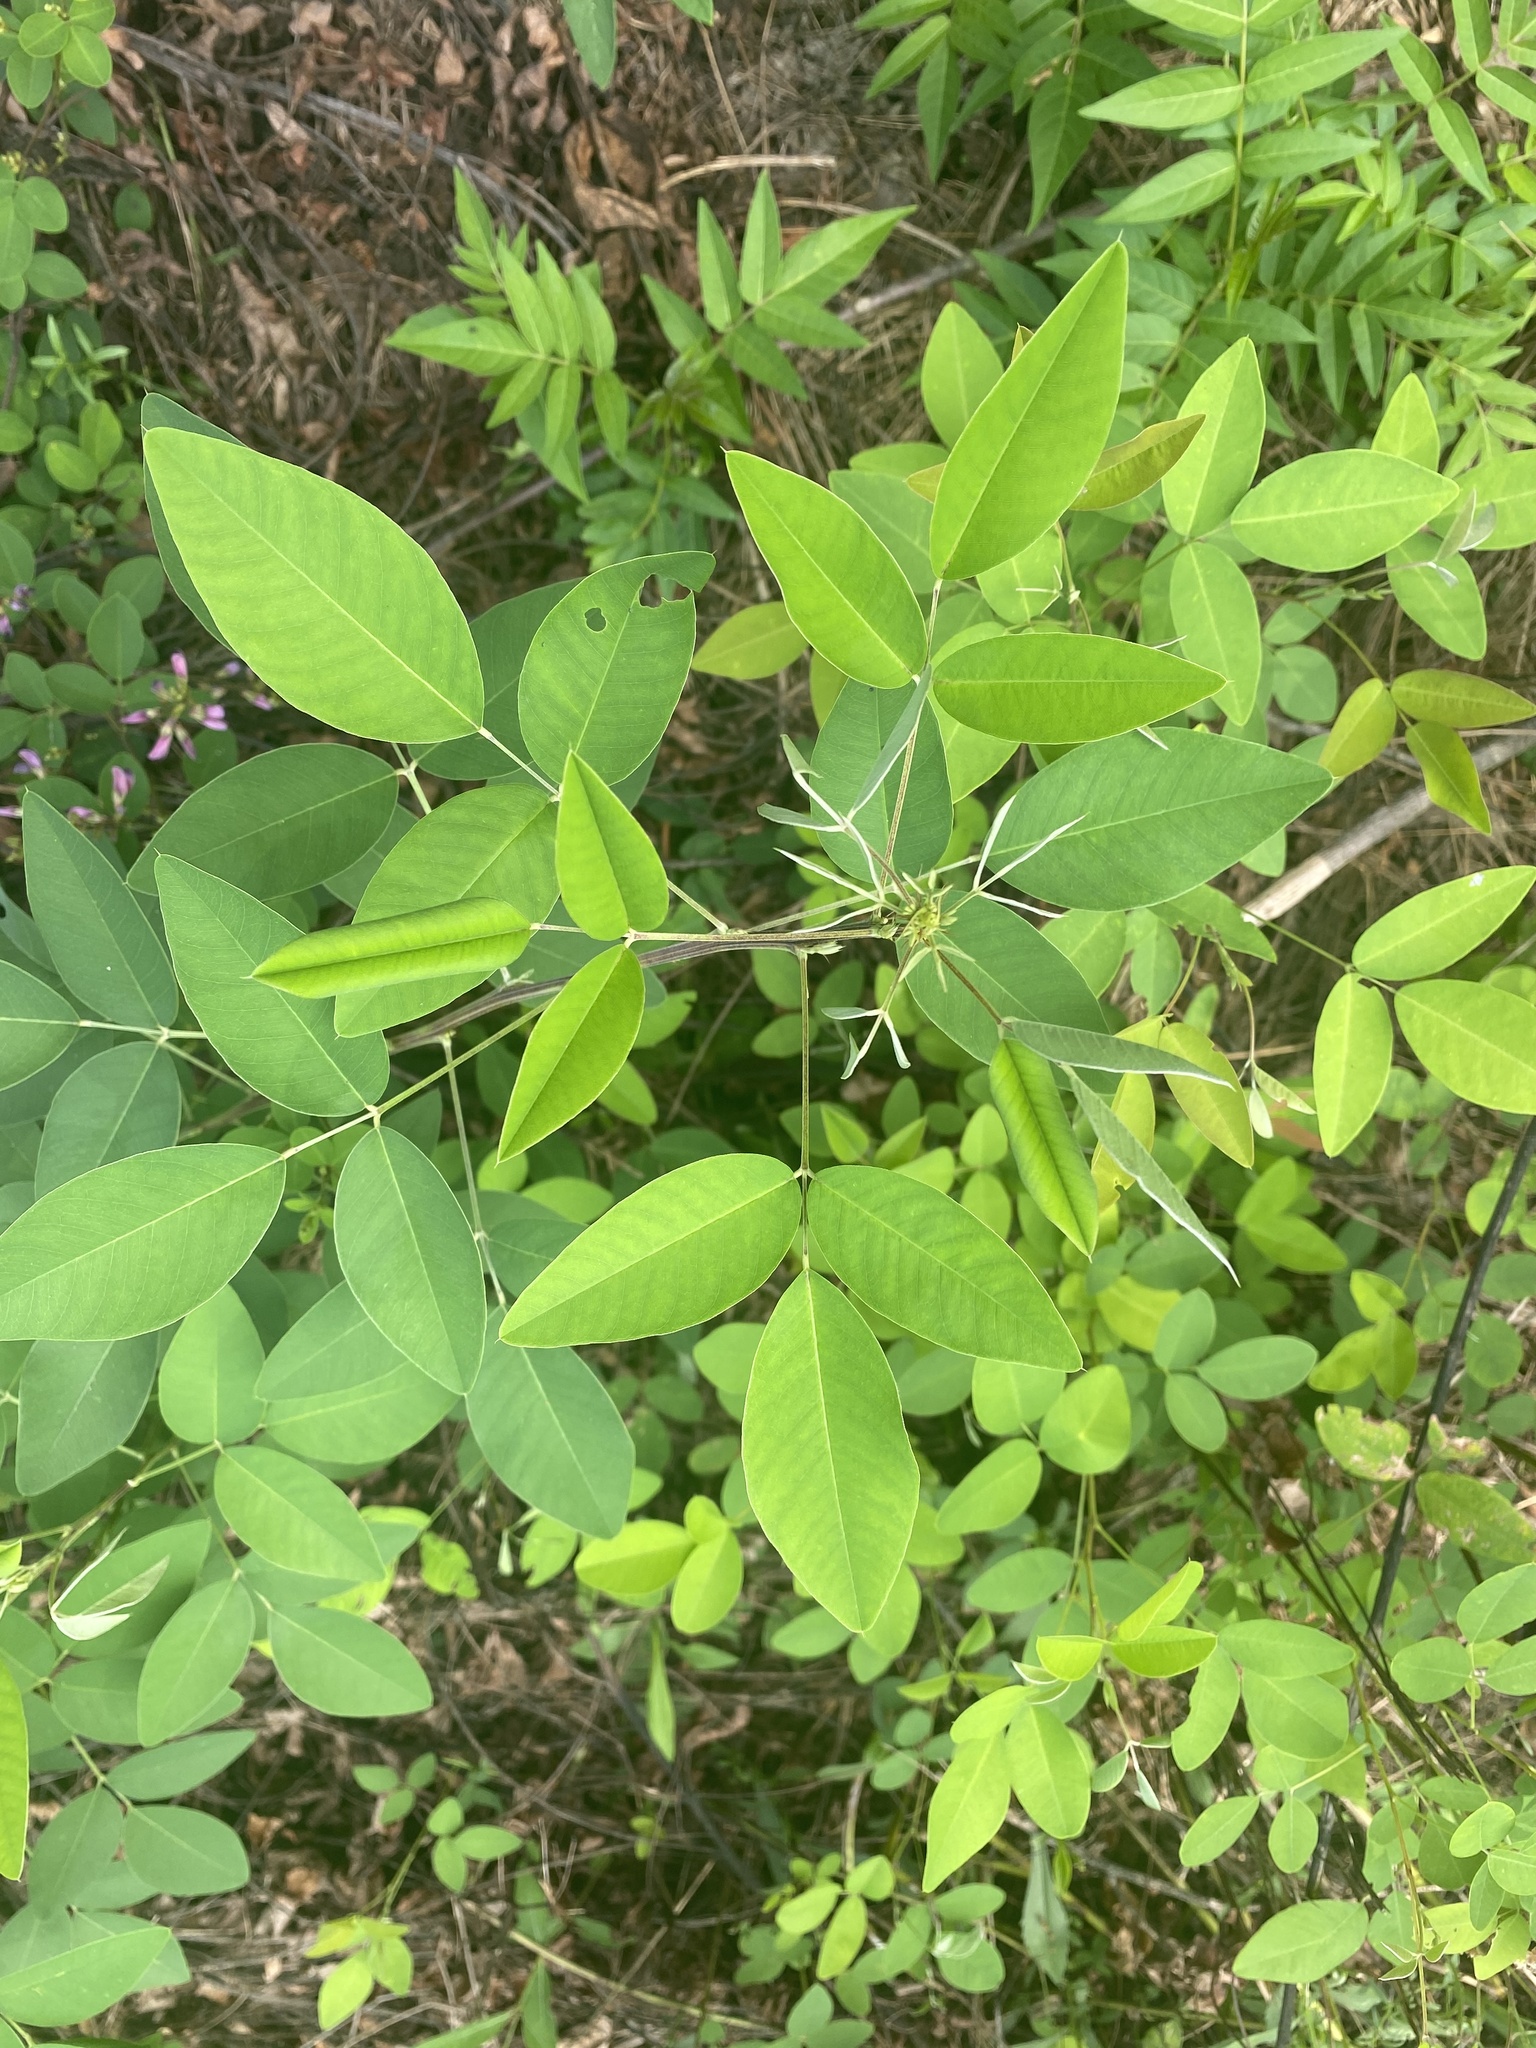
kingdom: Plantae
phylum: Tracheophyta
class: Magnoliopsida
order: Fabales
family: Fabaceae
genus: Lespedeza
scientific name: Lespedeza bicolor
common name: Shrub lespedeza
